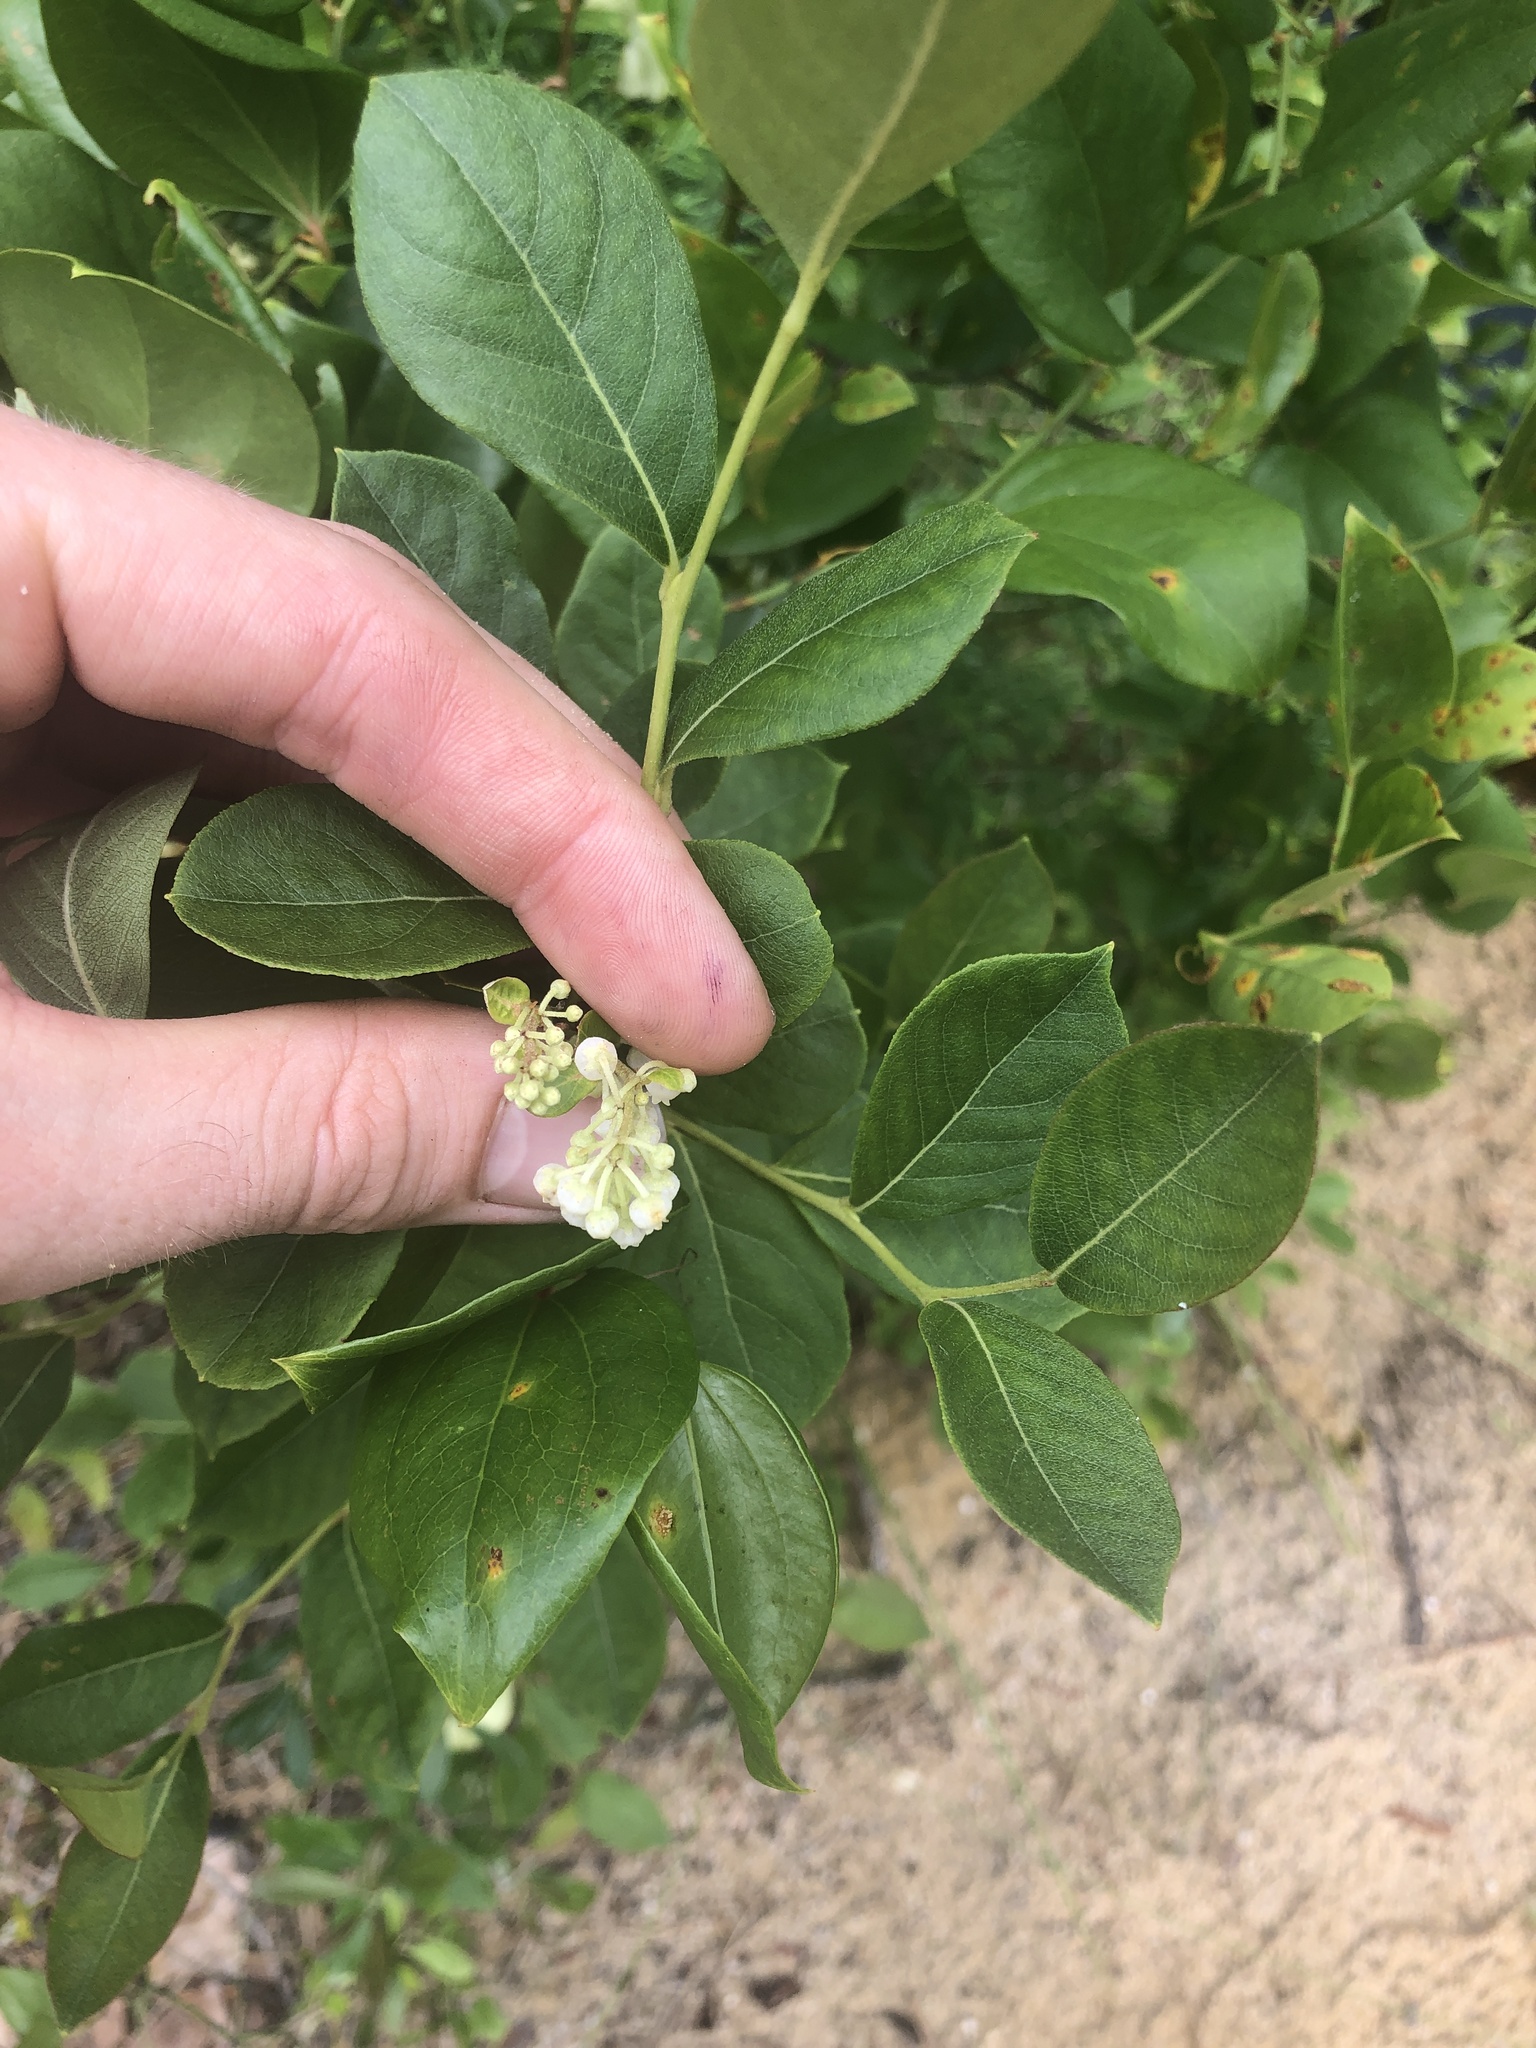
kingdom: Plantae
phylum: Tracheophyta
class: Magnoliopsida
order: Ericales
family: Ericaceae
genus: Lyonia
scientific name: Lyonia ligustrina
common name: Maleberry
